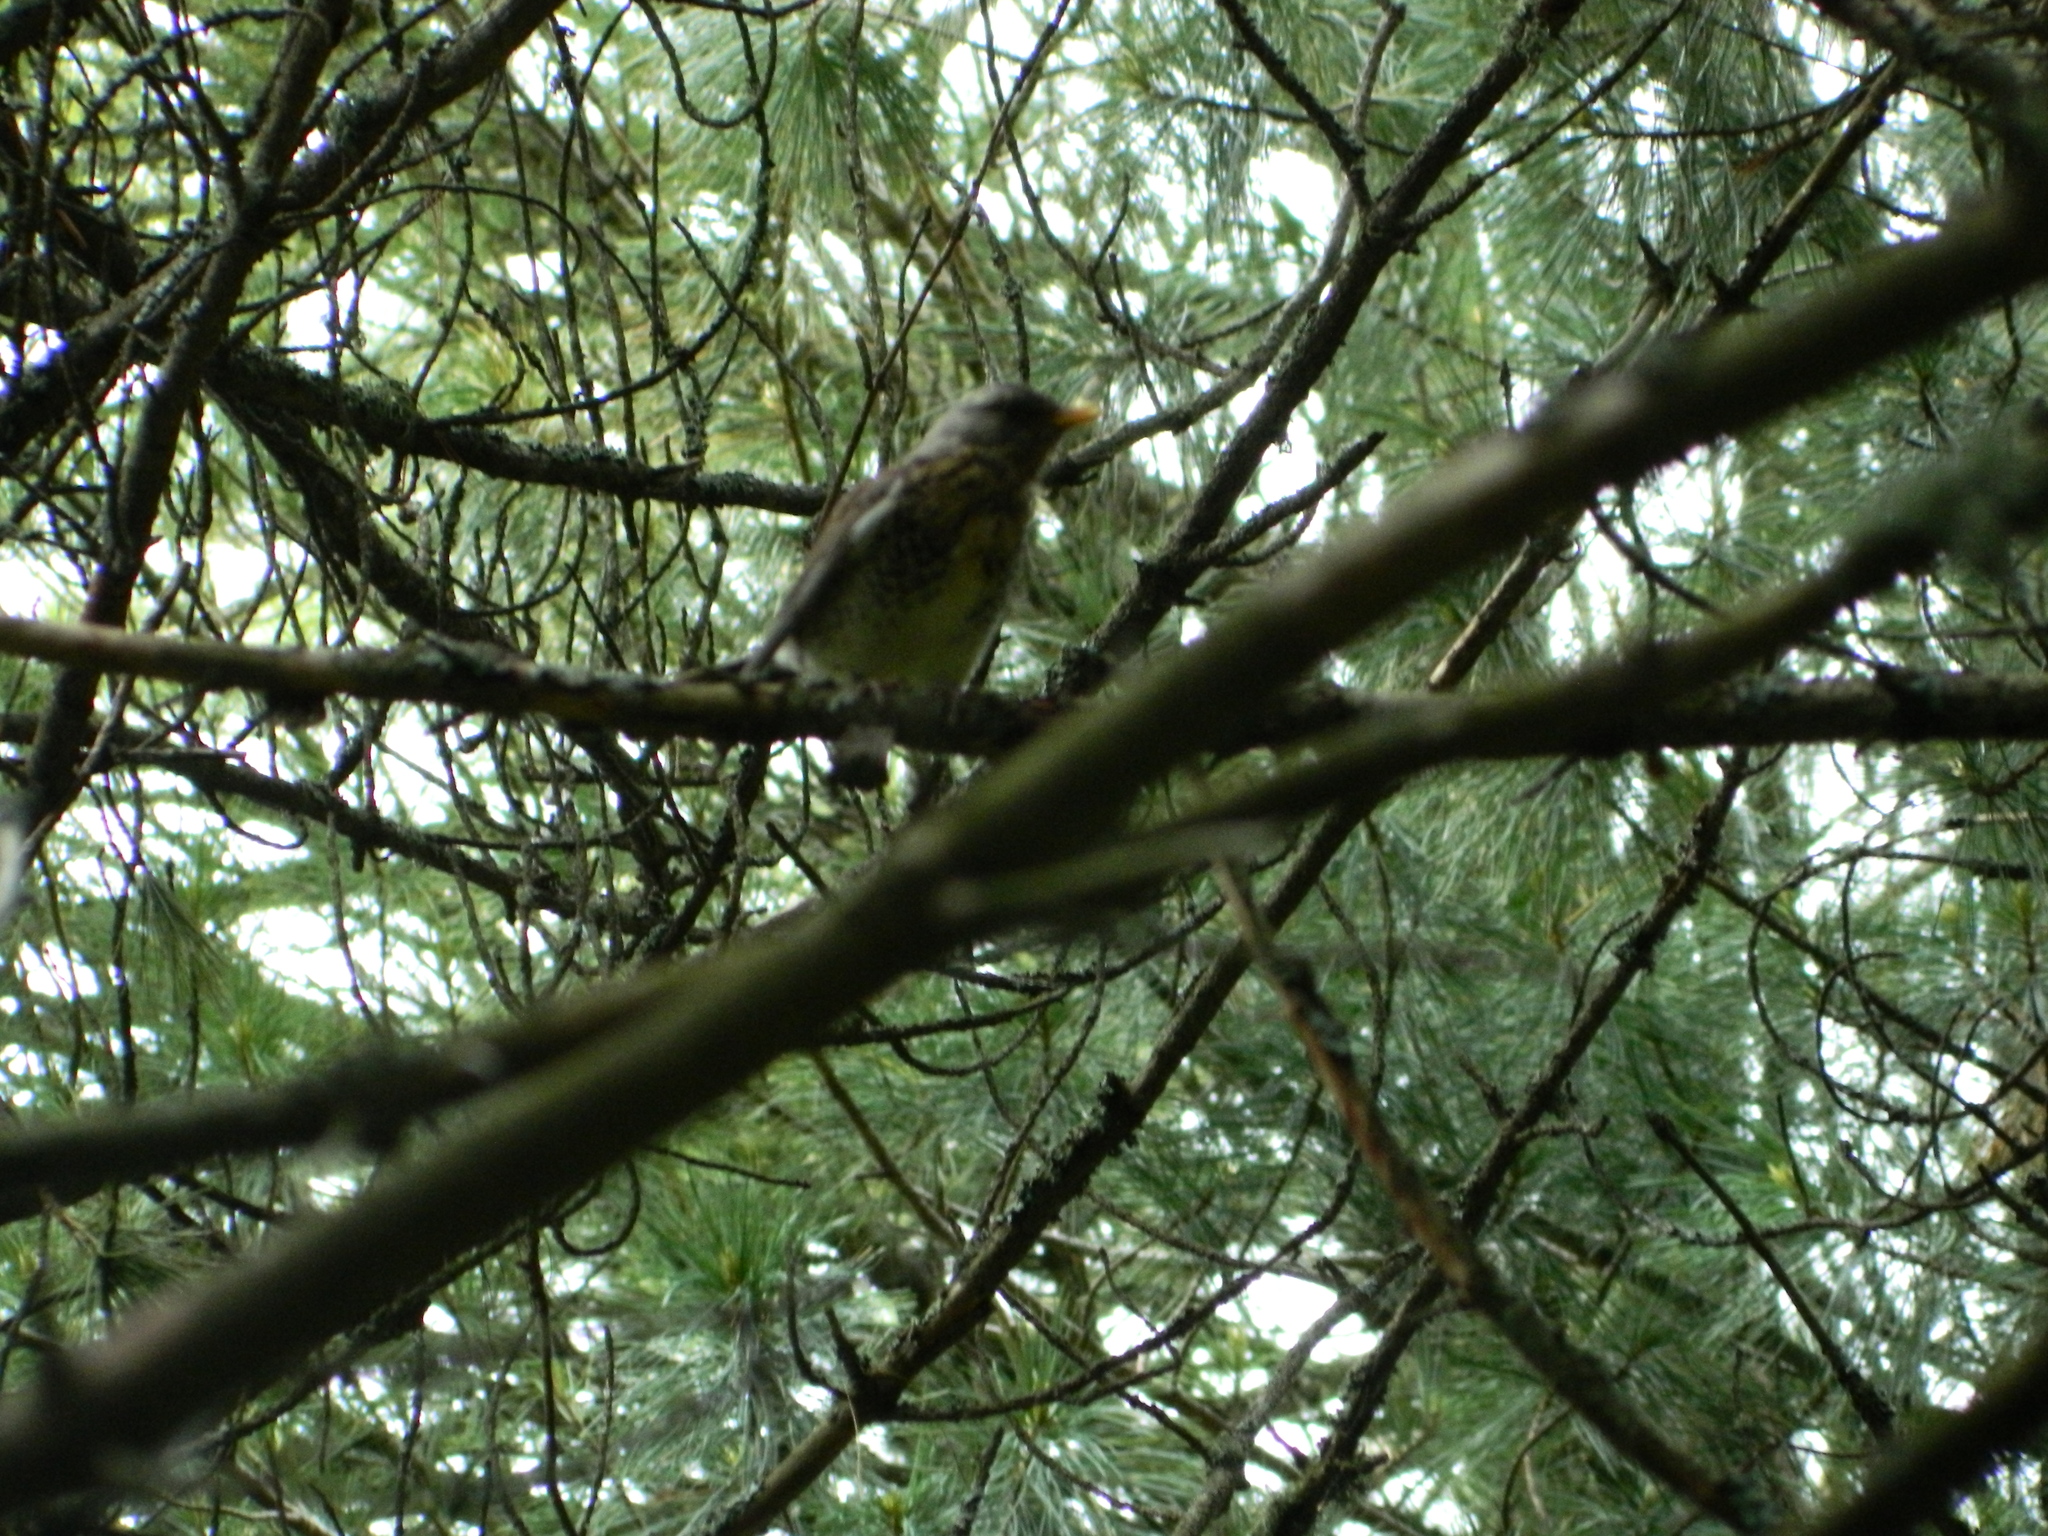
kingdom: Animalia
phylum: Chordata
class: Aves
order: Passeriformes
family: Turdidae
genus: Turdus
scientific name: Turdus pilaris
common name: Fieldfare
